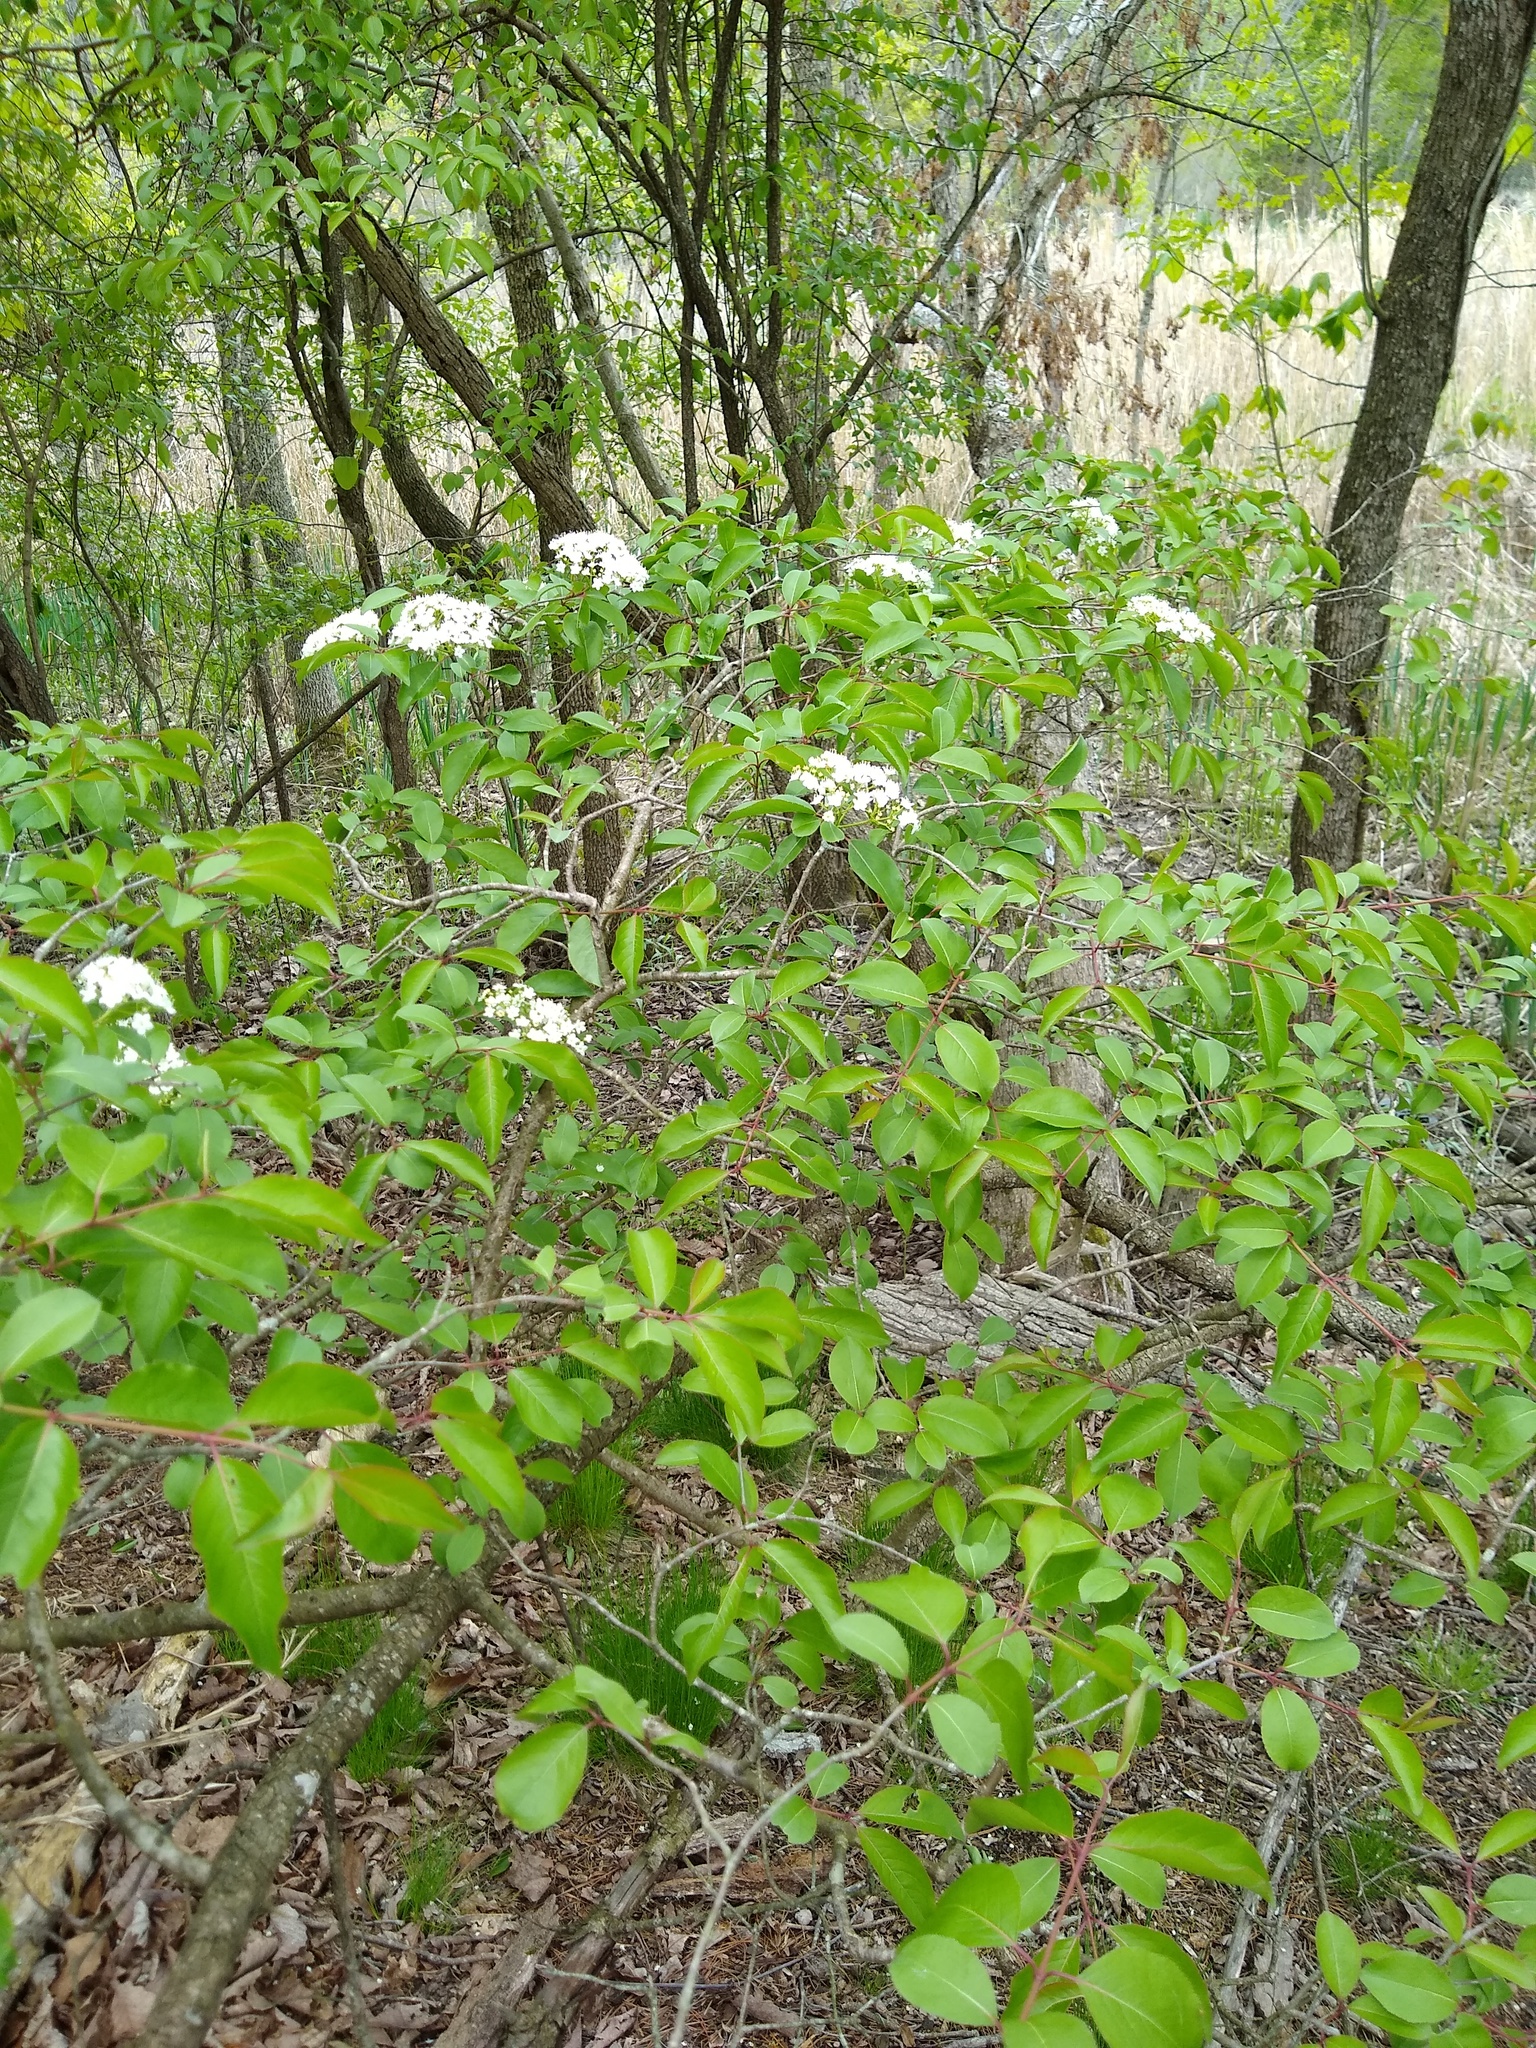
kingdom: Plantae
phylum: Tracheophyta
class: Magnoliopsida
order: Dipsacales
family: Viburnaceae
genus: Viburnum
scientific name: Viburnum prunifolium
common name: Black haw
